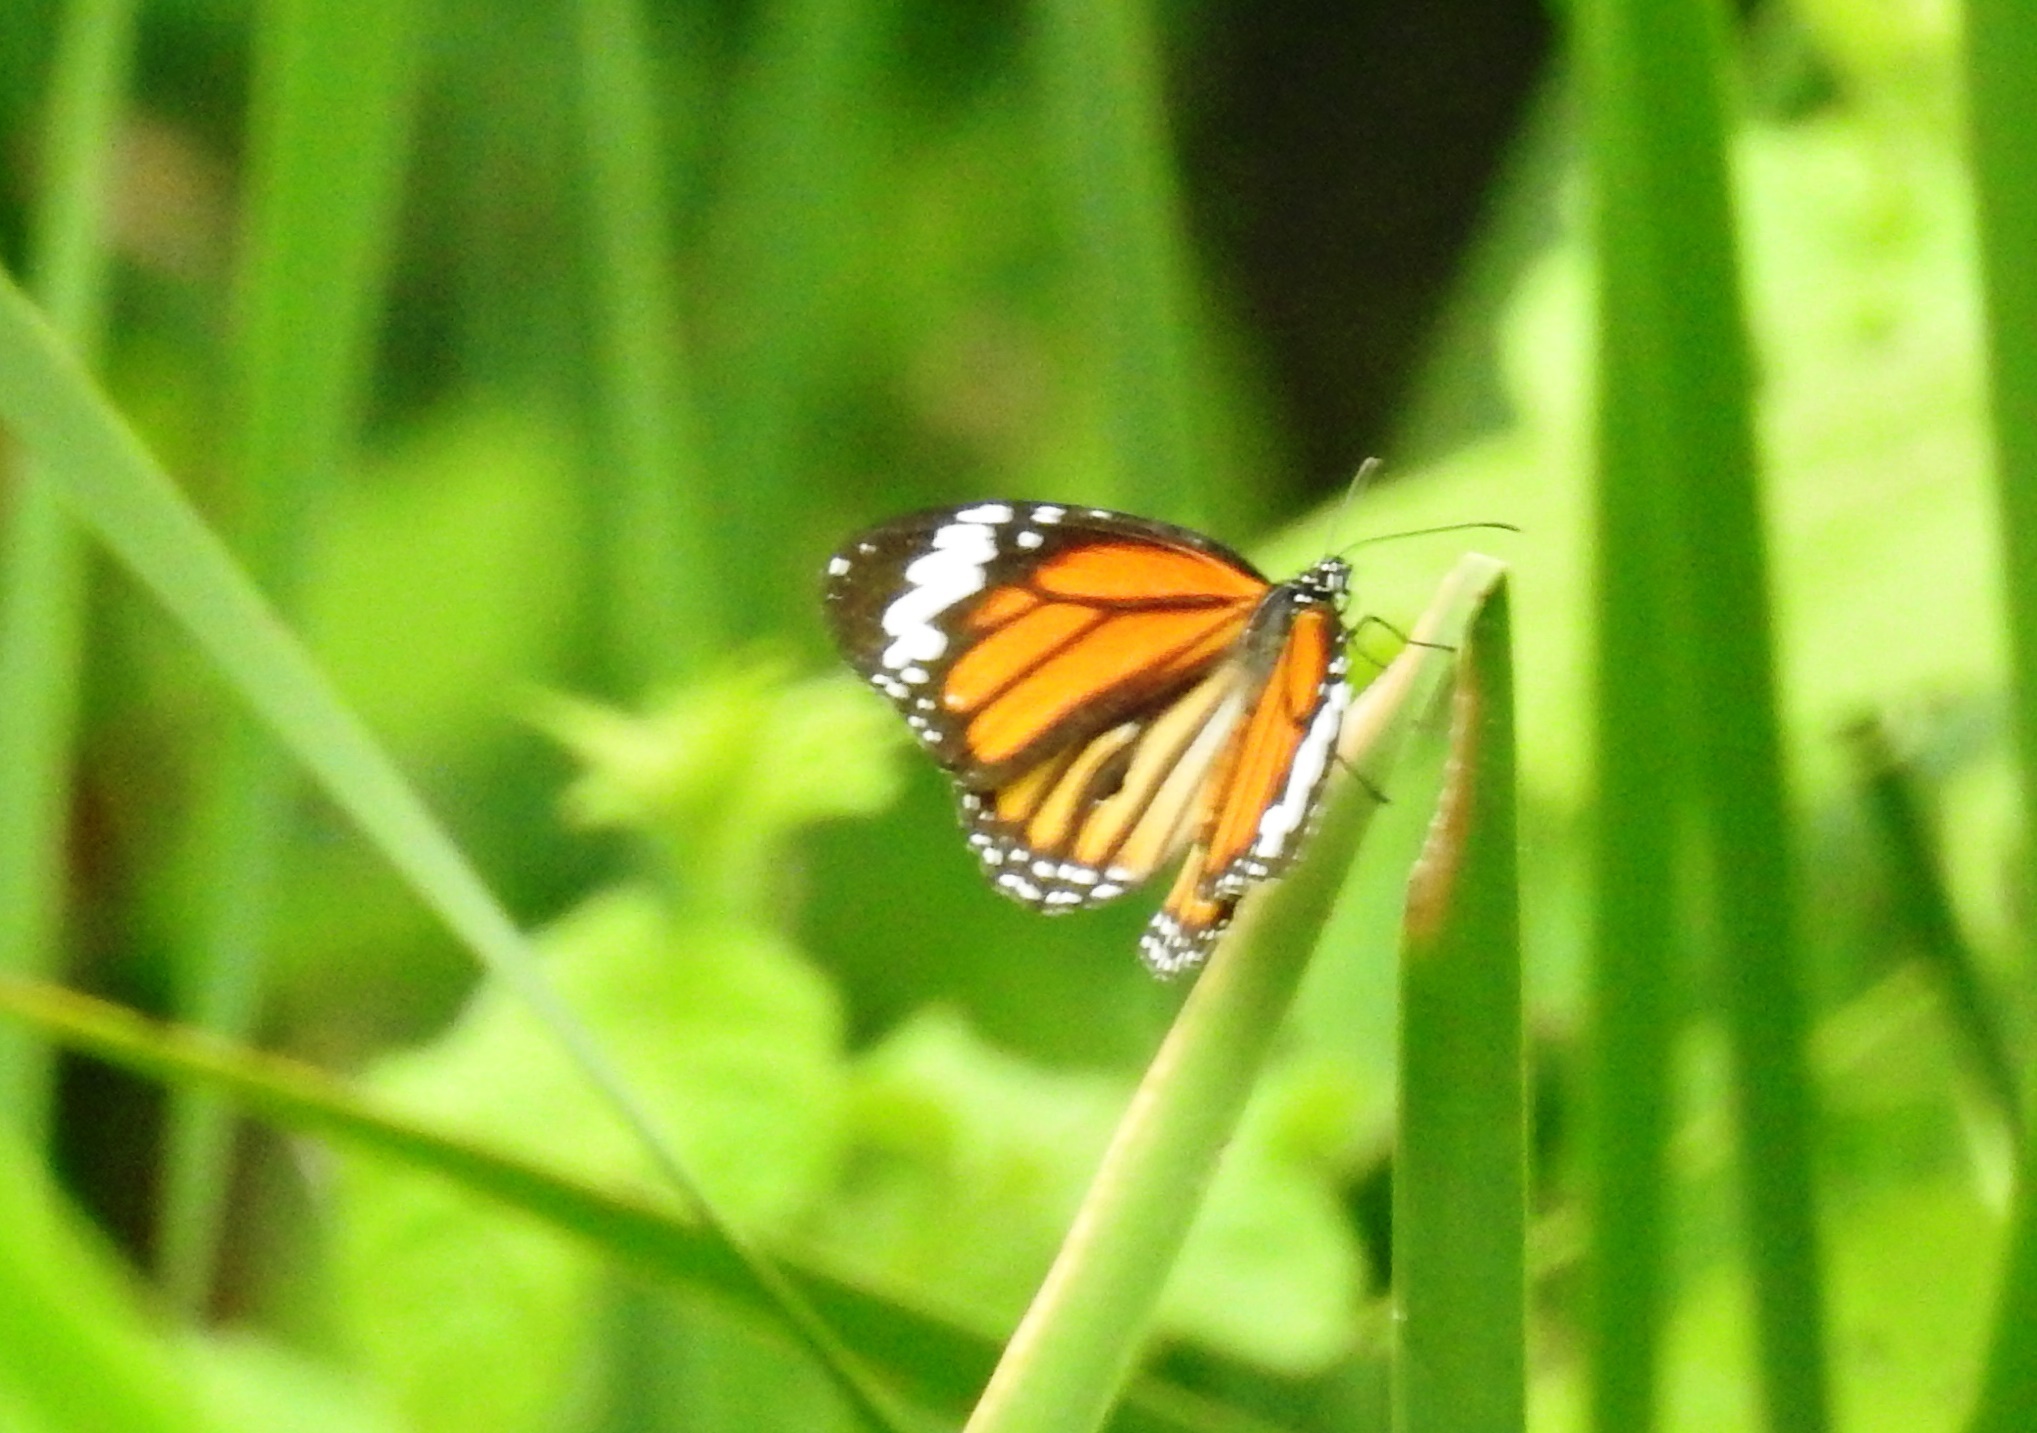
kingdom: Animalia
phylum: Arthropoda
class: Insecta
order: Lepidoptera
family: Nymphalidae
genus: Danaus
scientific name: Danaus genutia
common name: Common tiger butterfly
